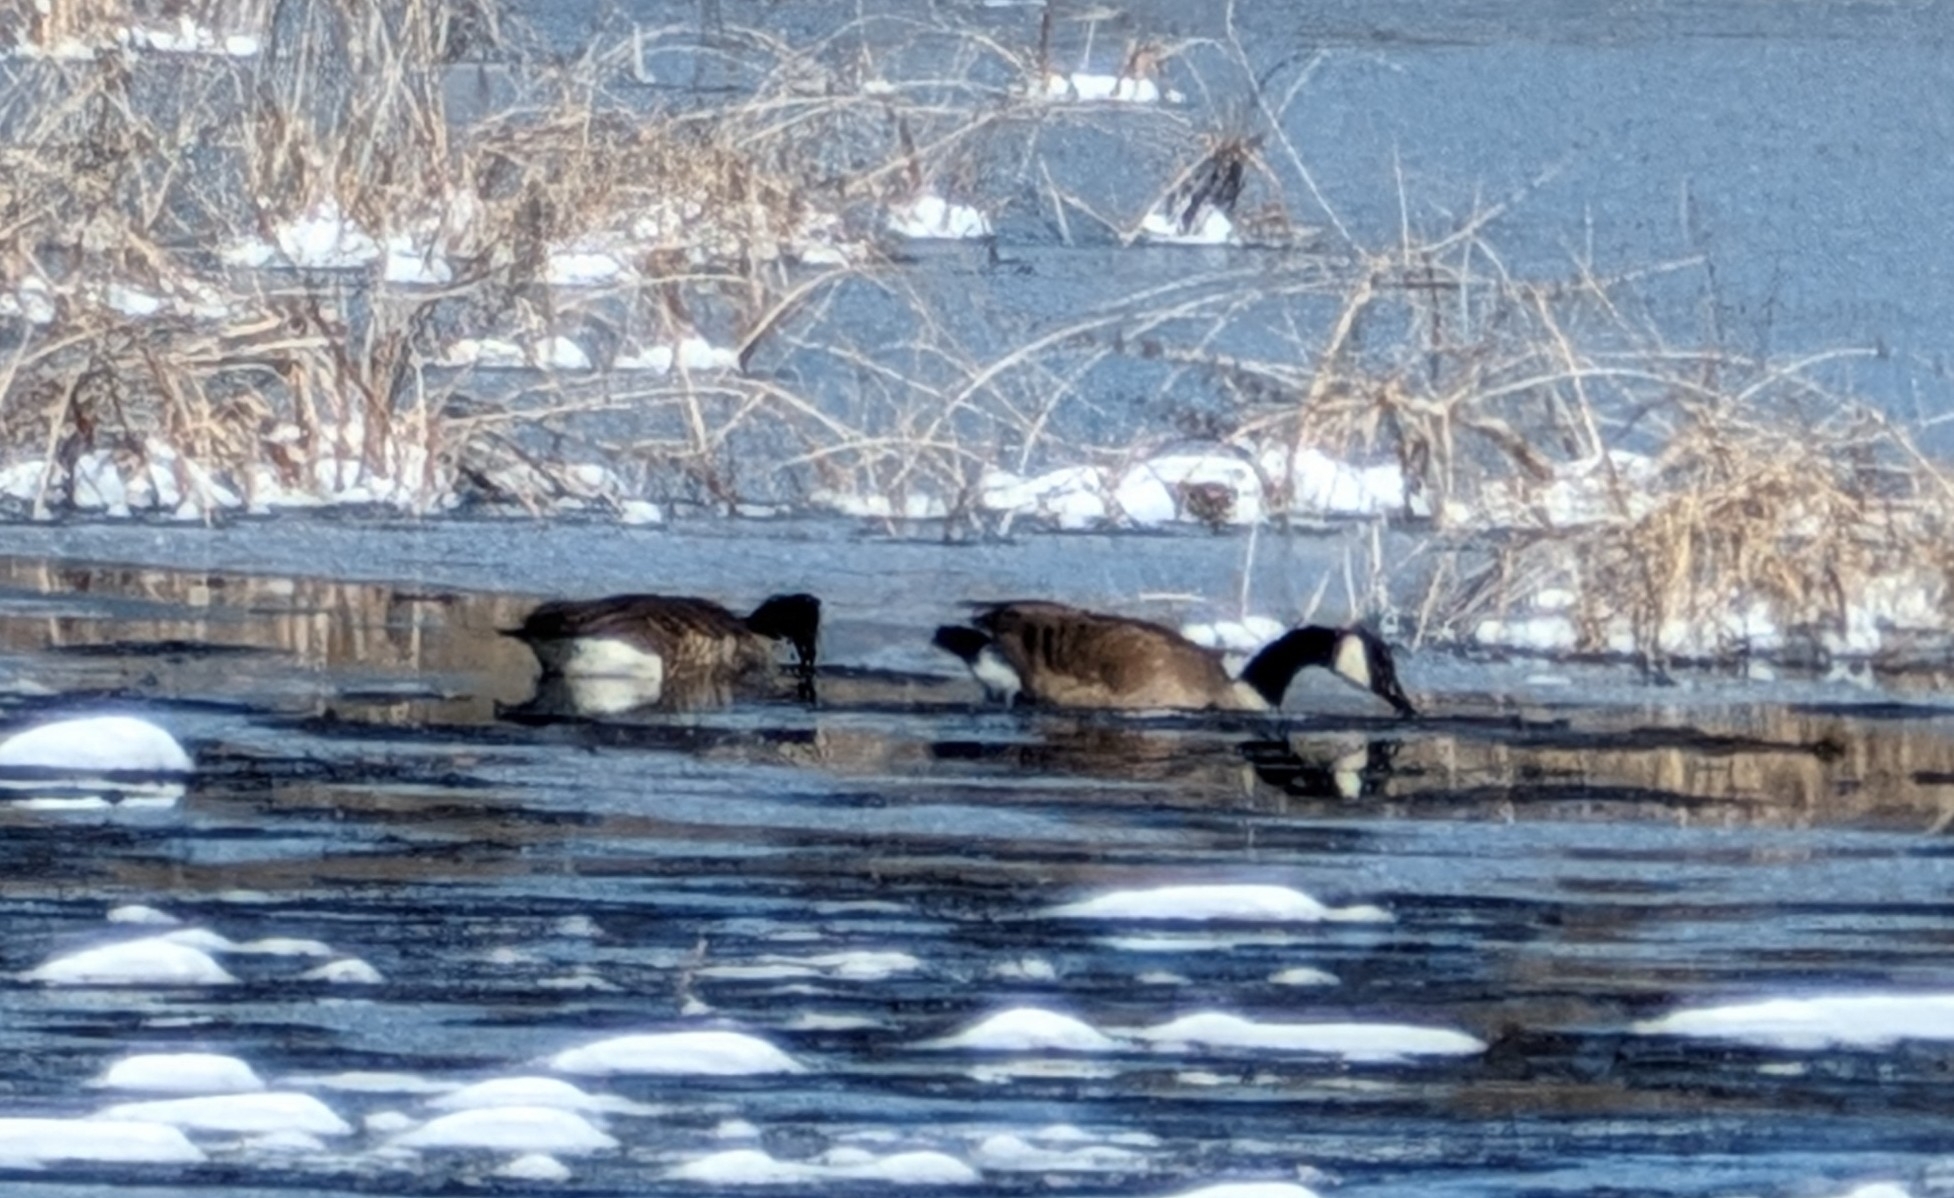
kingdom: Animalia
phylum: Chordata
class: Aves
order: Anseriformes
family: Anatidae
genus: Branta
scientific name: Branta canadensis
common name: Canada goose
